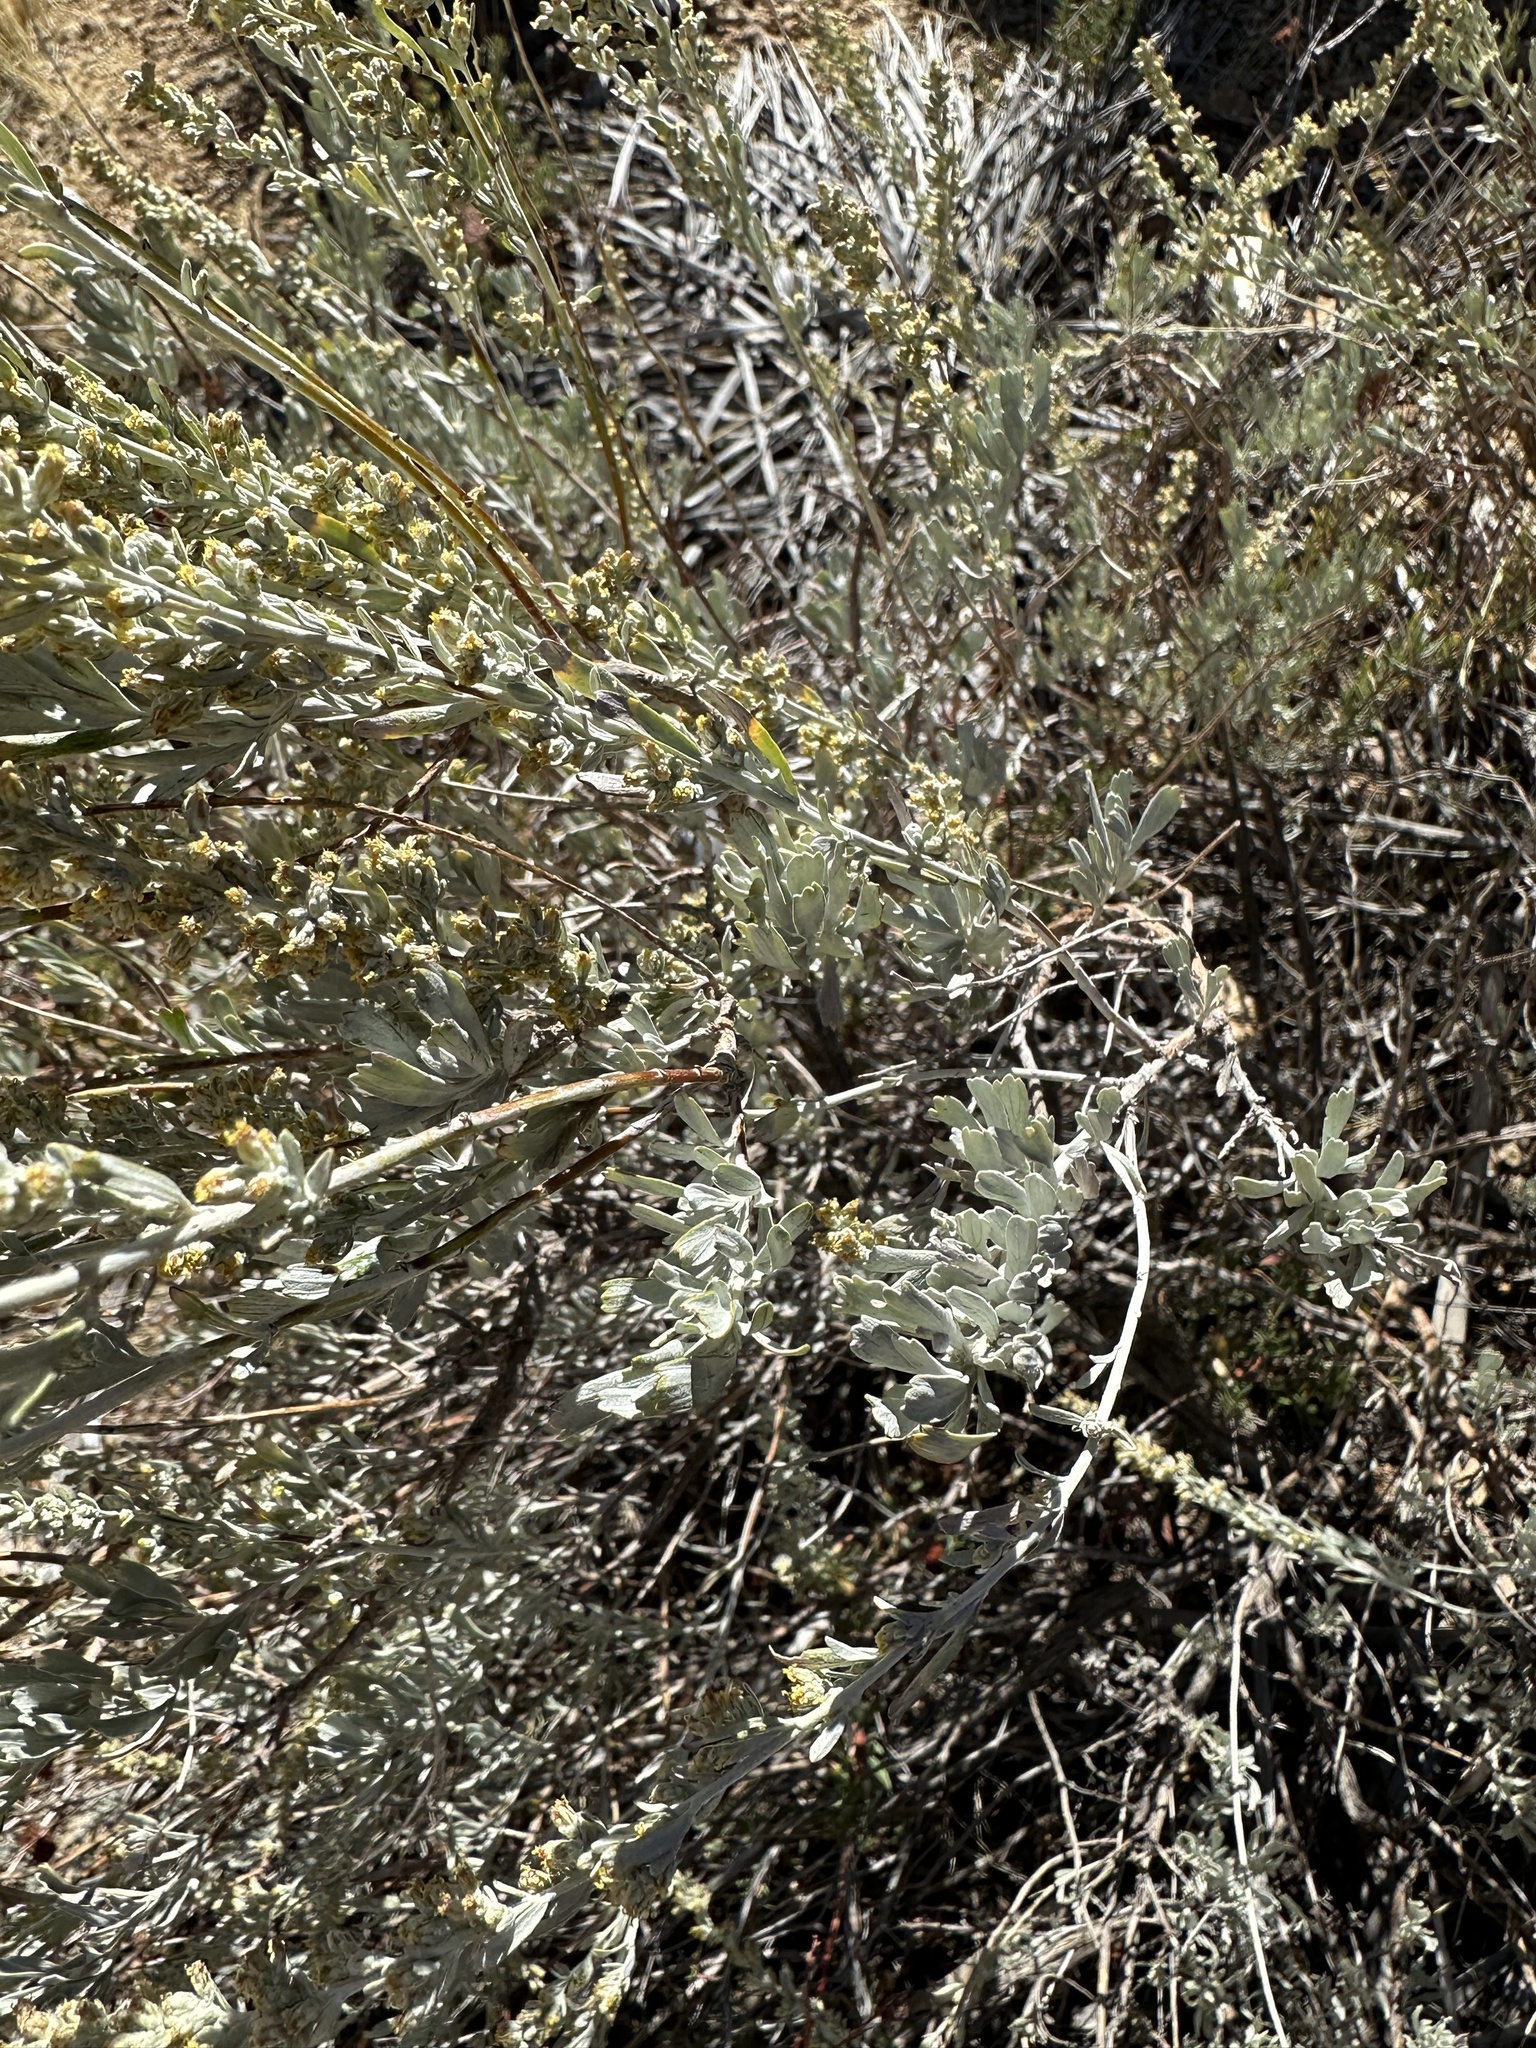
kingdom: Plantae
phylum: Tracheophyta
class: Magnoliopsida
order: Asterales
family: Asteraceae
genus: Artemisia
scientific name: Artemisia tridentata
